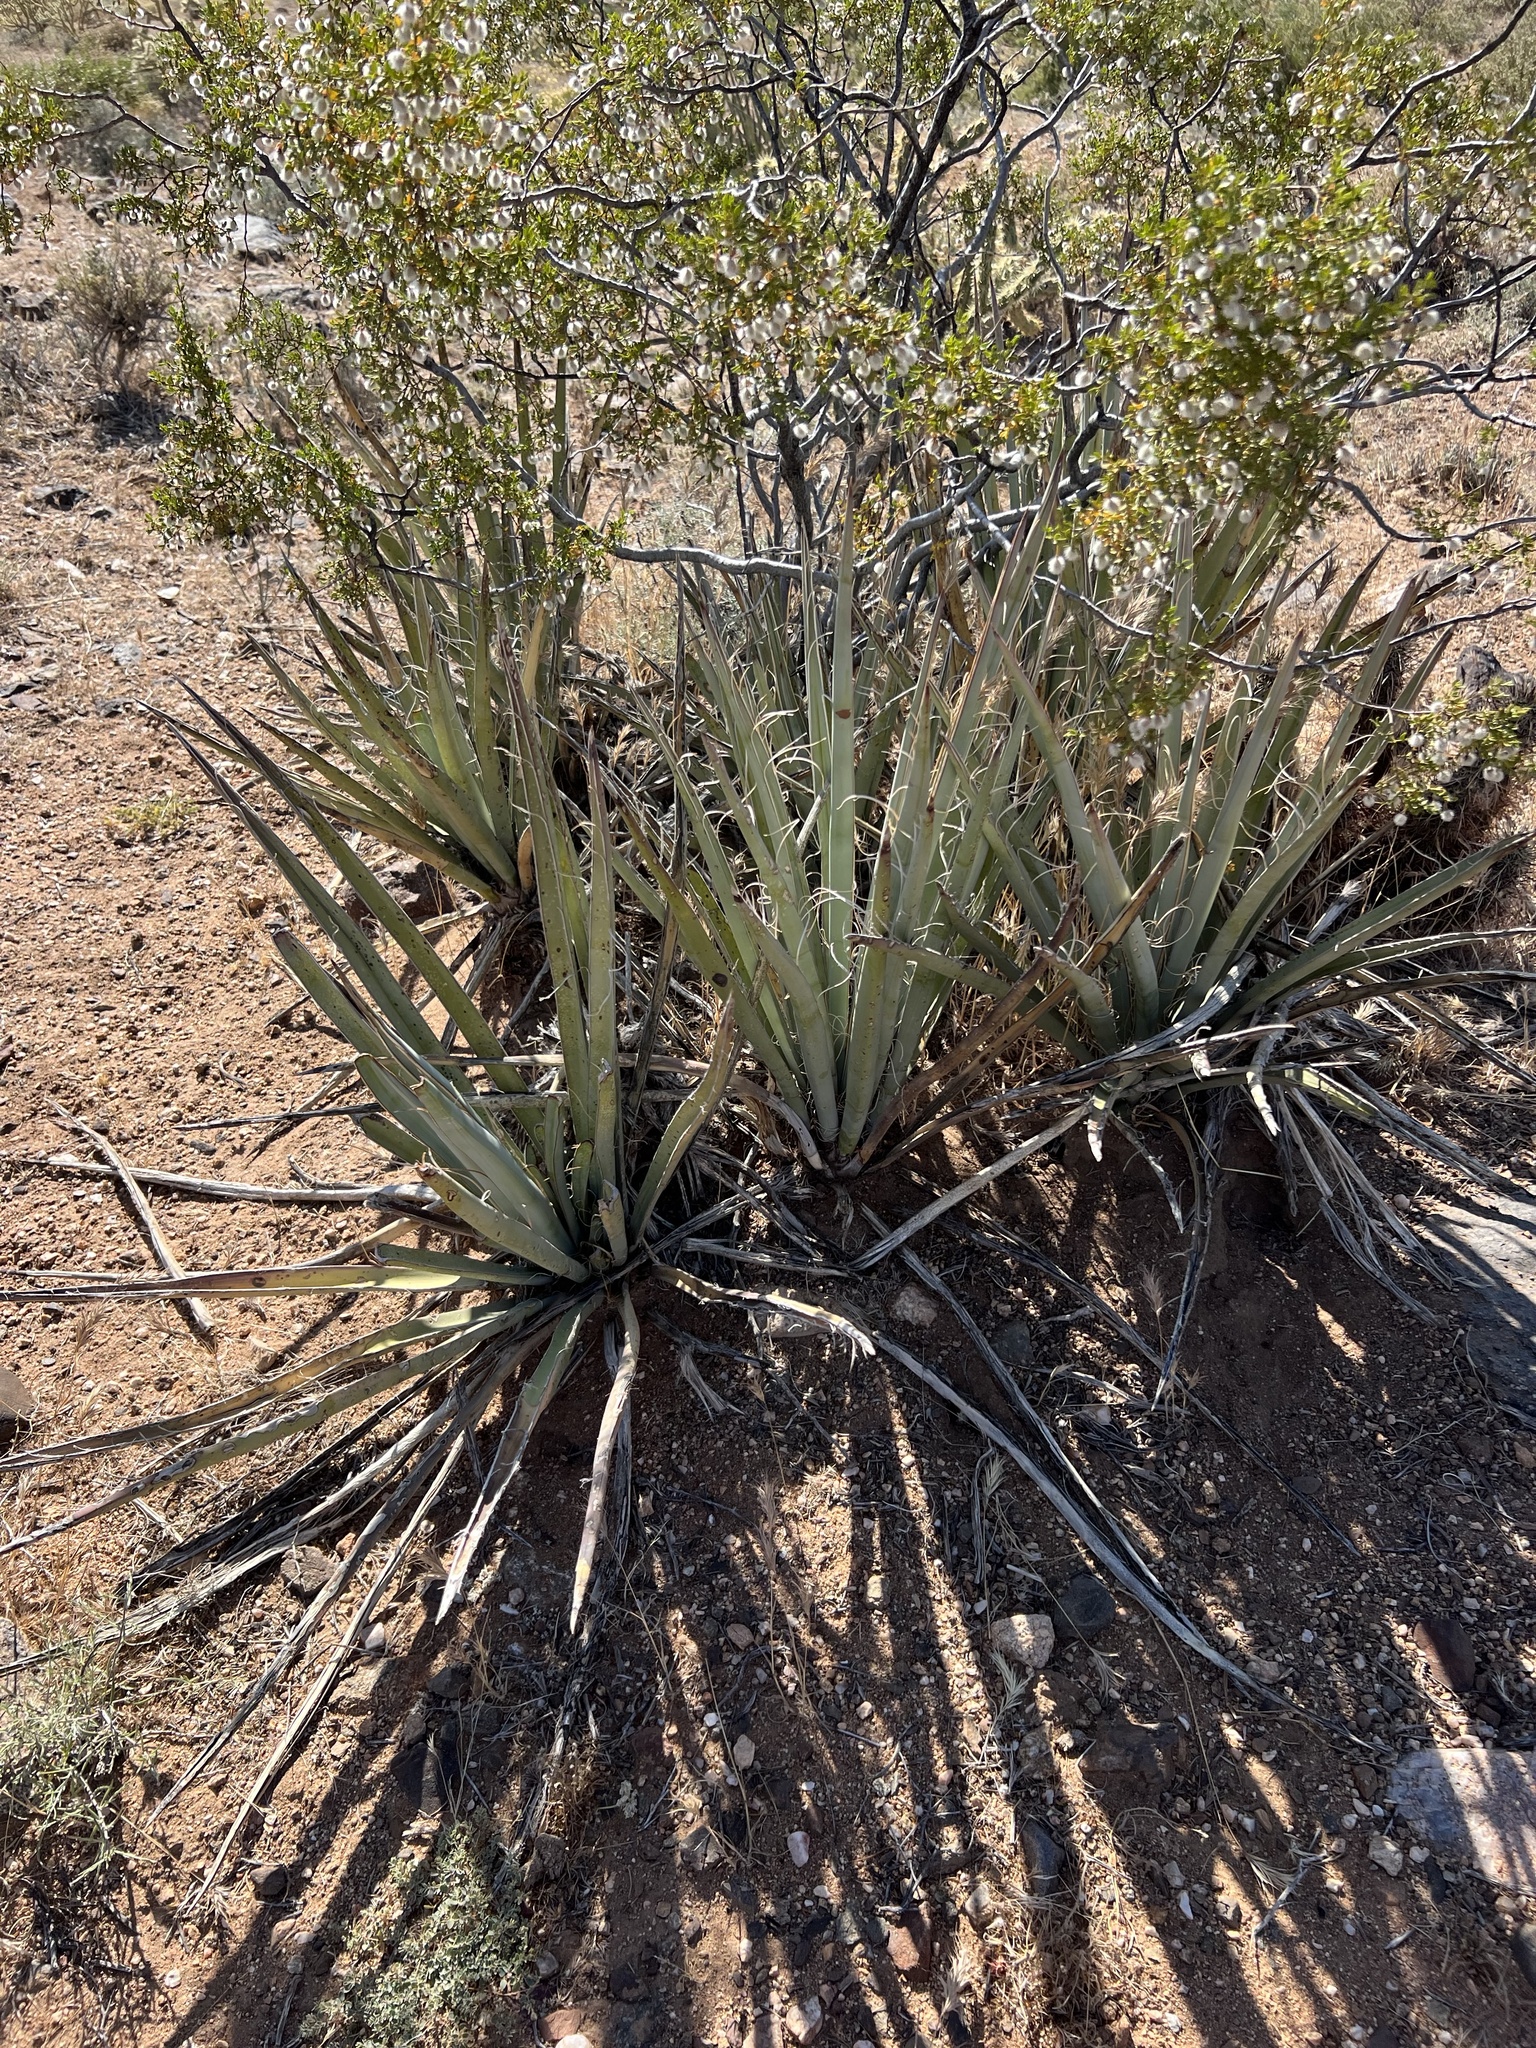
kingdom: Plantae
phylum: Tracheophyta
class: Liliopsida
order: Asparagales
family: Asparagaceae
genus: Yucca
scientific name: Yucca baccata
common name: Banana yucca
